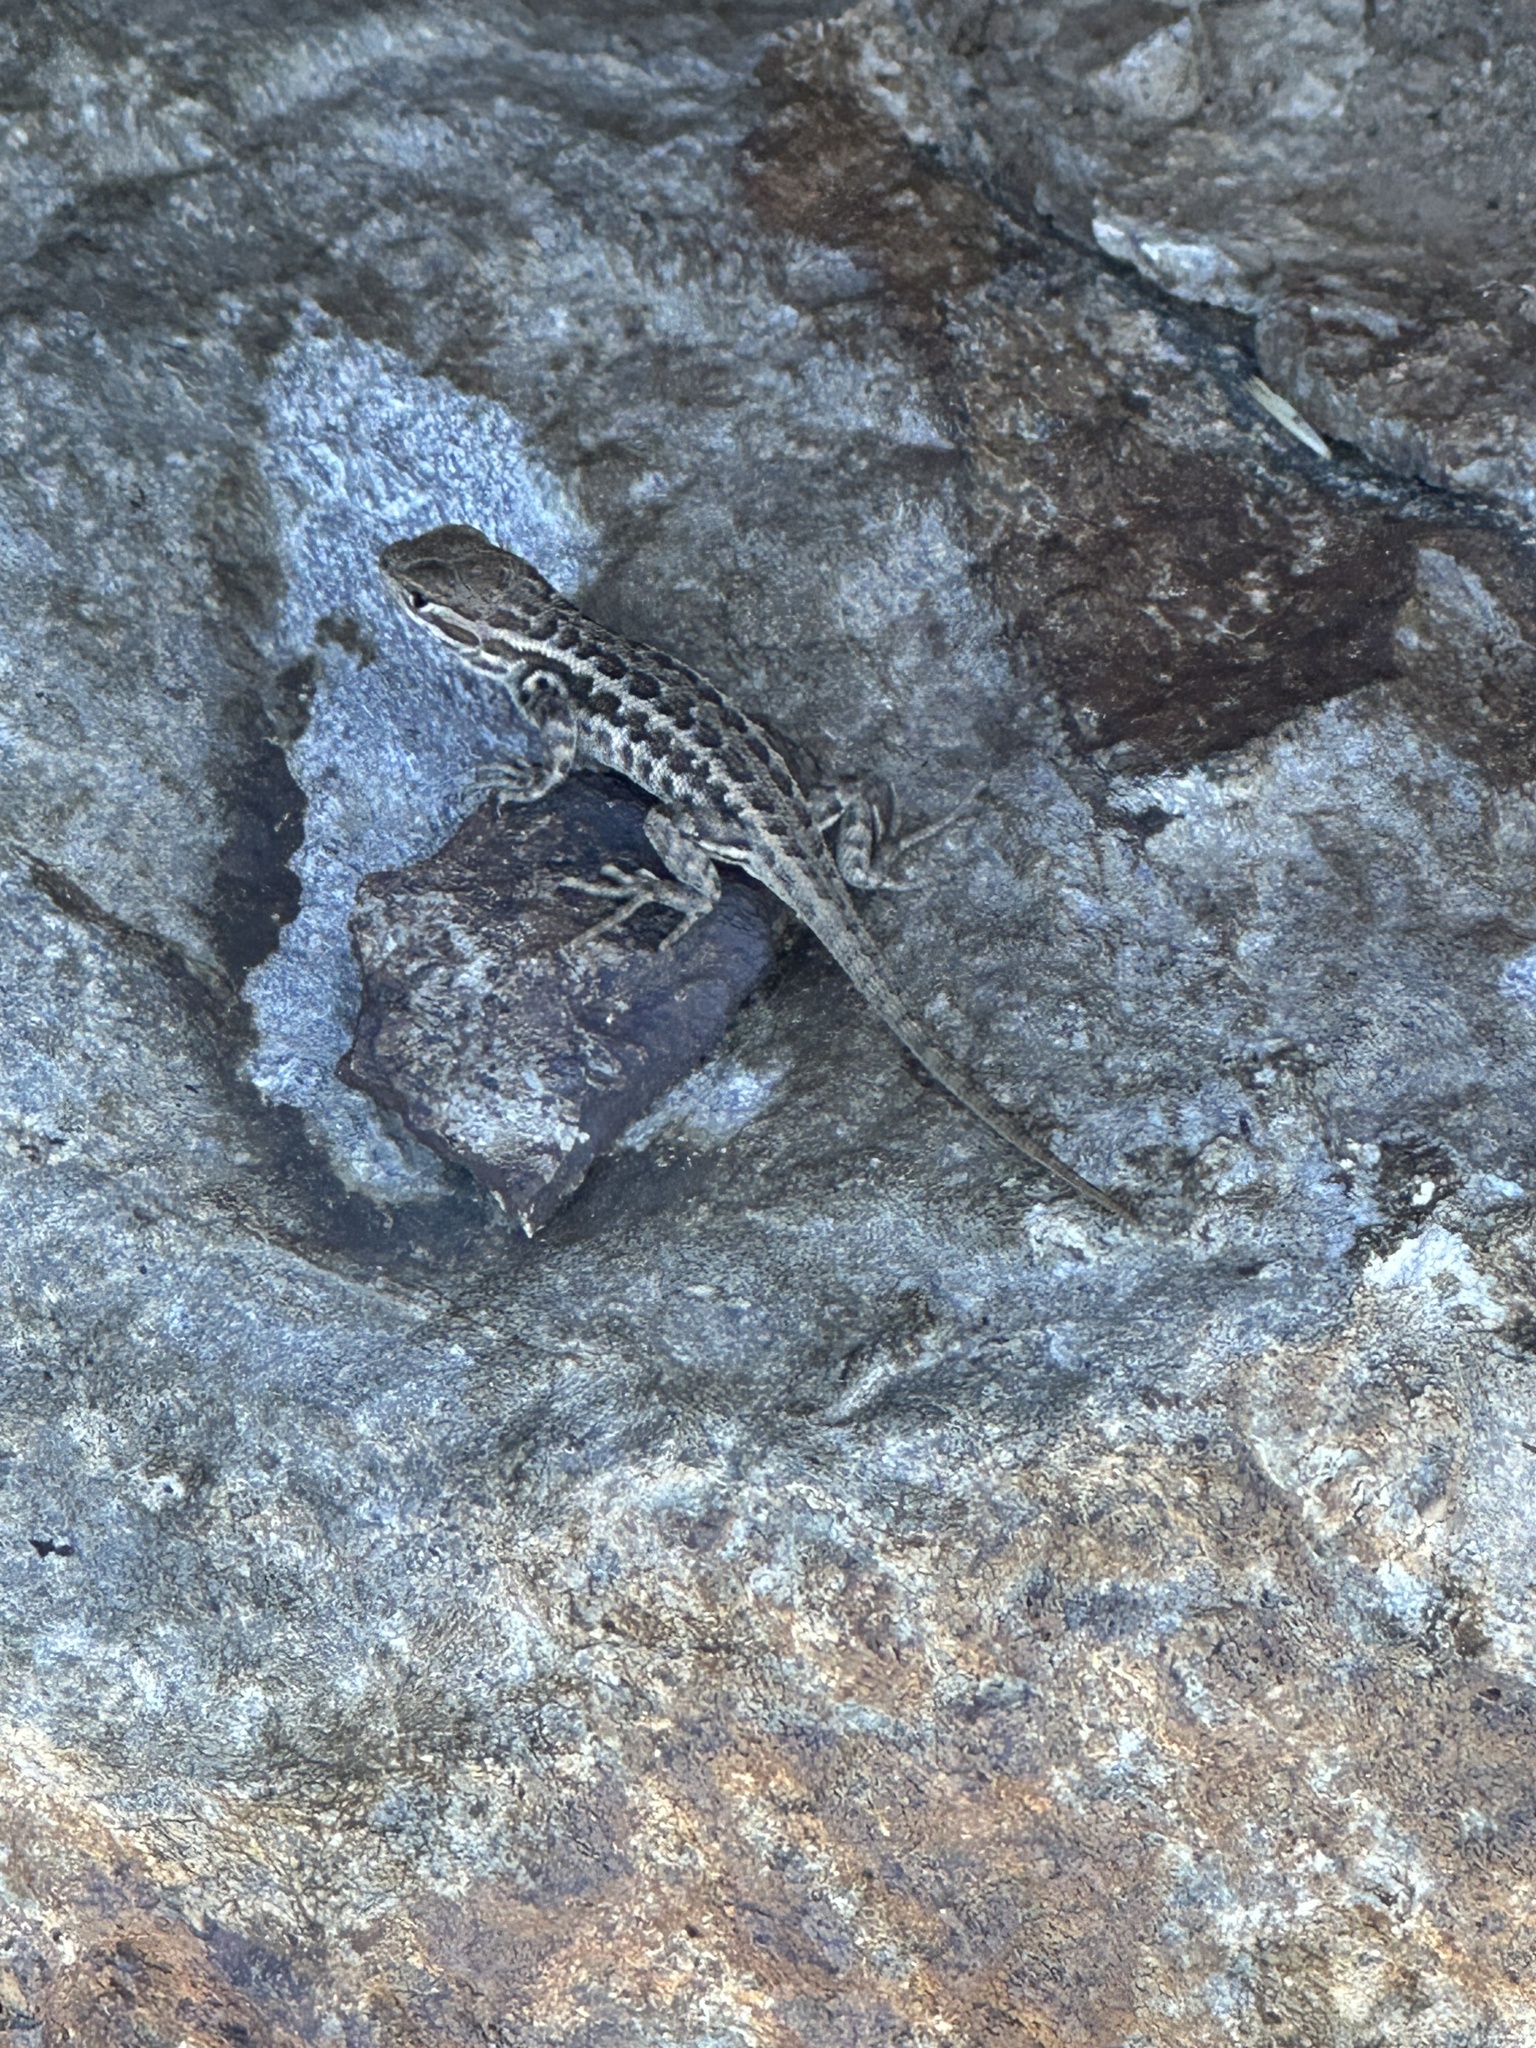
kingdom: Animalia
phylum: Chordata
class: Squamata
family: Phrynosomatidae
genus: Sceloporus
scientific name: Sceloporus graciosus
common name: Sagebrush lizard
